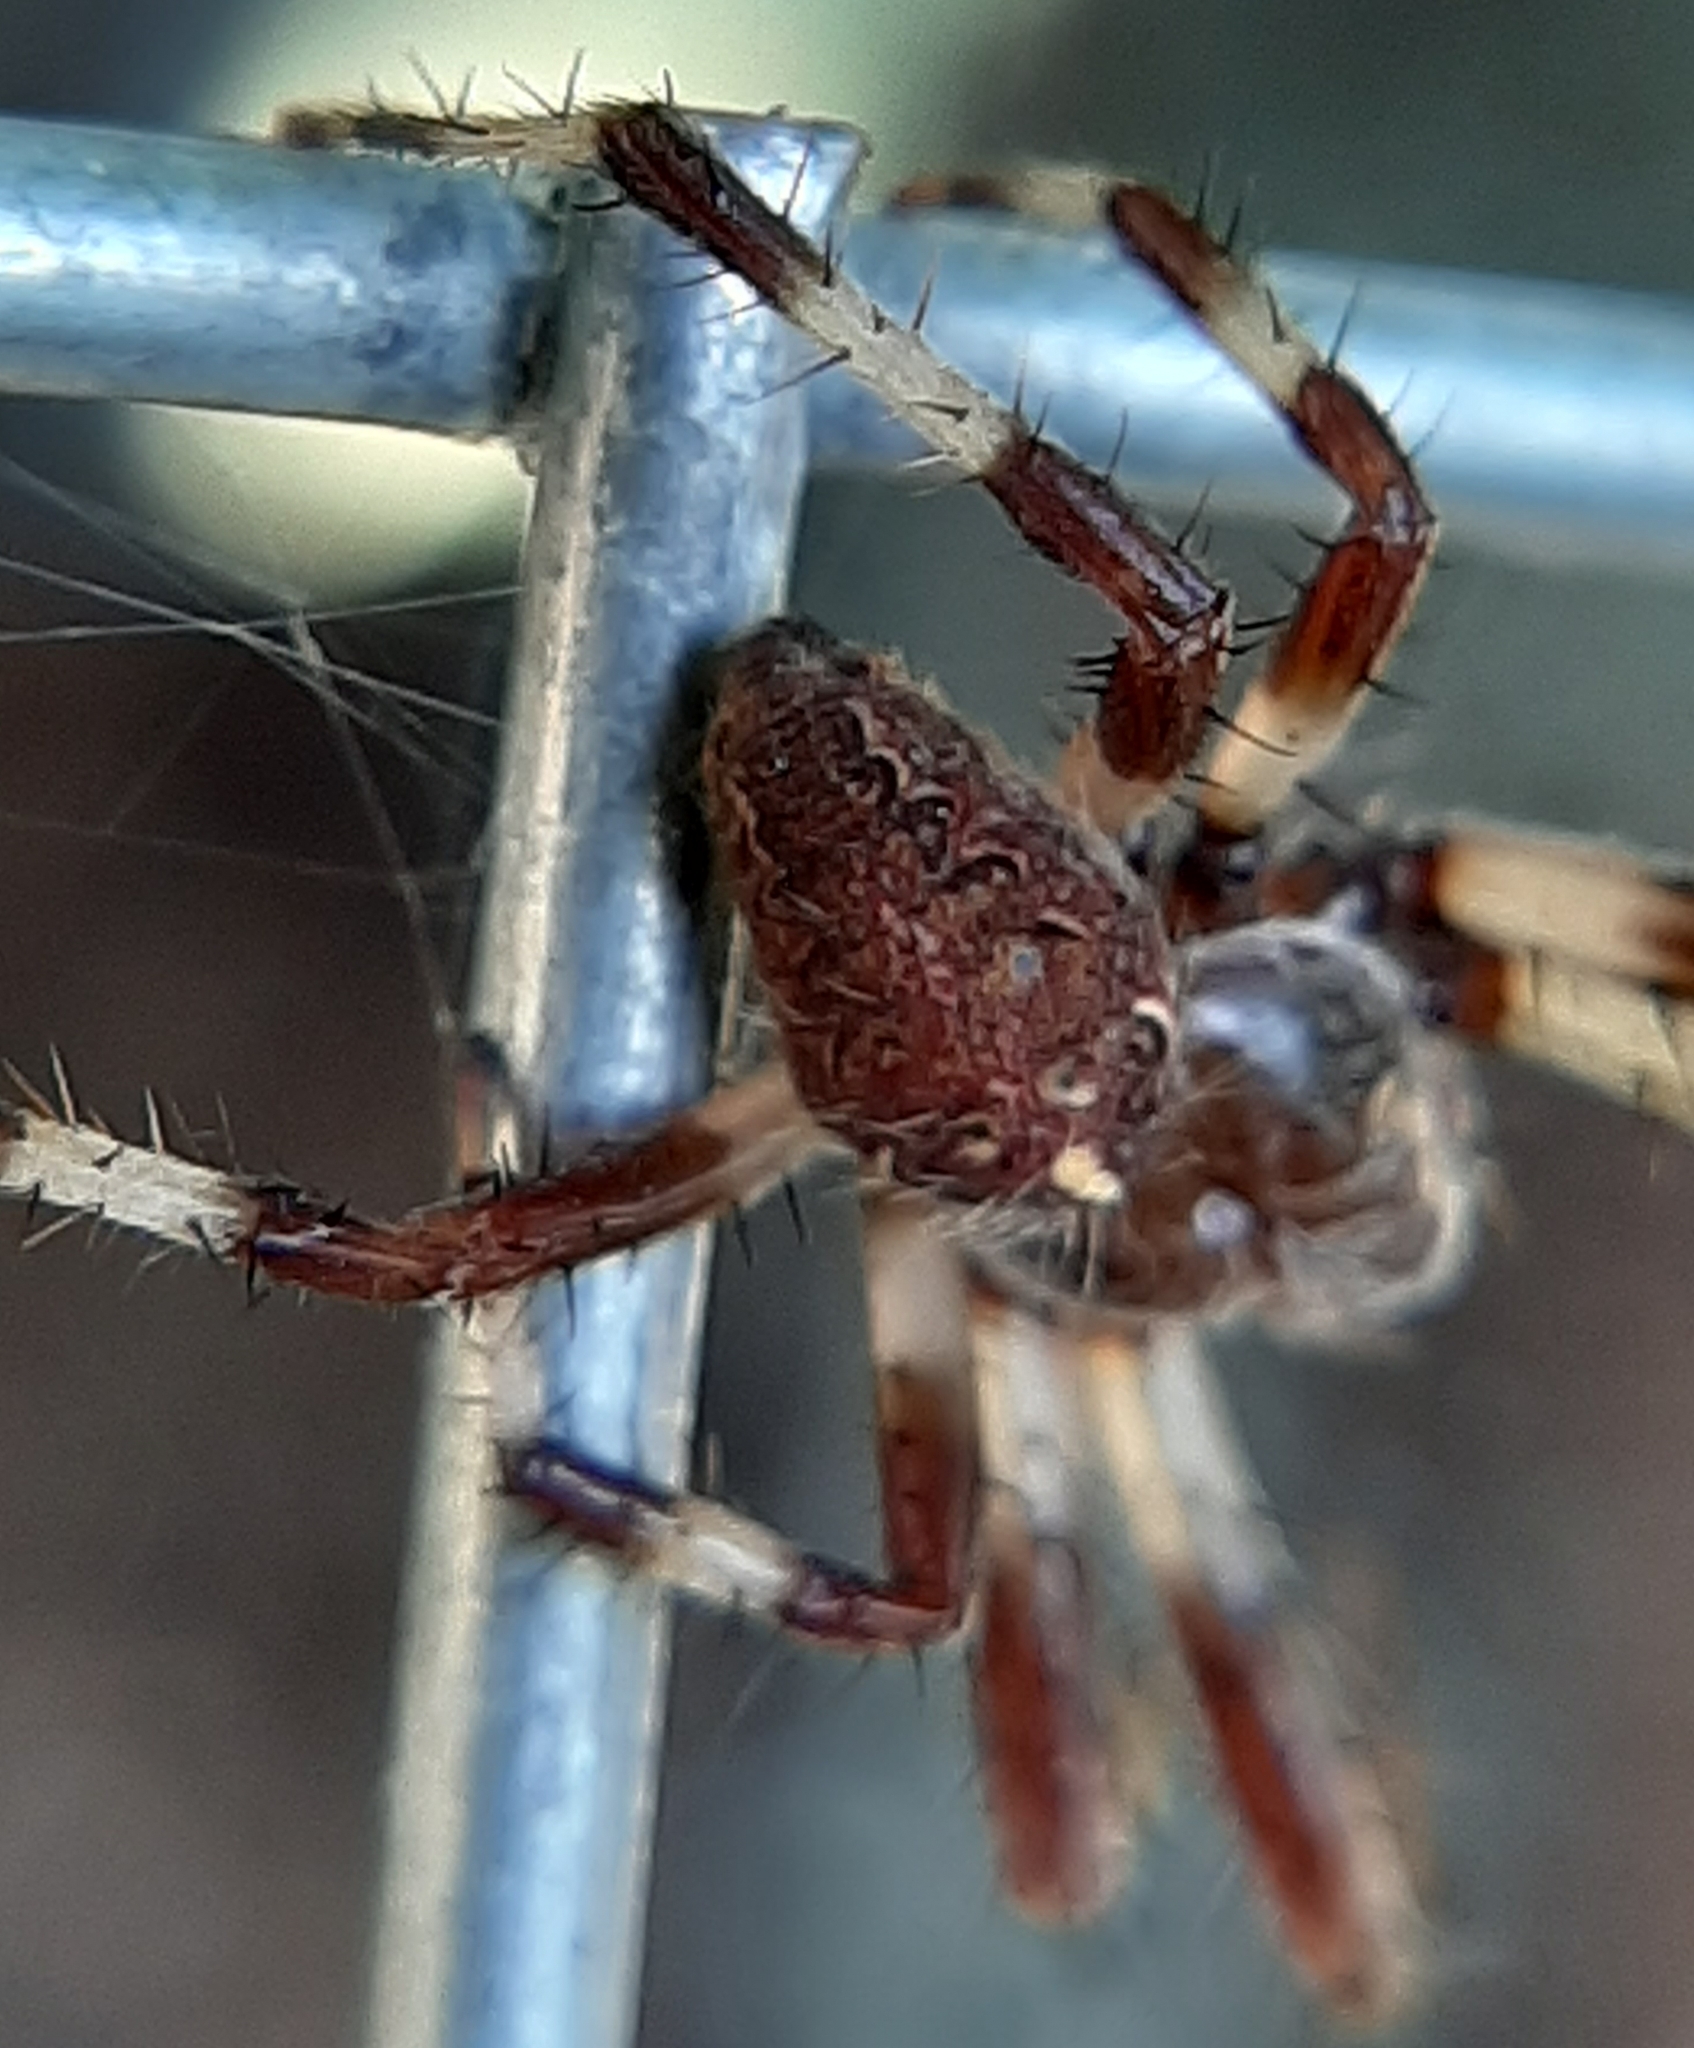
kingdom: Animalia
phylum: Arthropoda
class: Arachnida
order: Araneae
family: Araneidae
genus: Araneus
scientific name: Araneus marmoreus
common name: Marbled orbweaver
